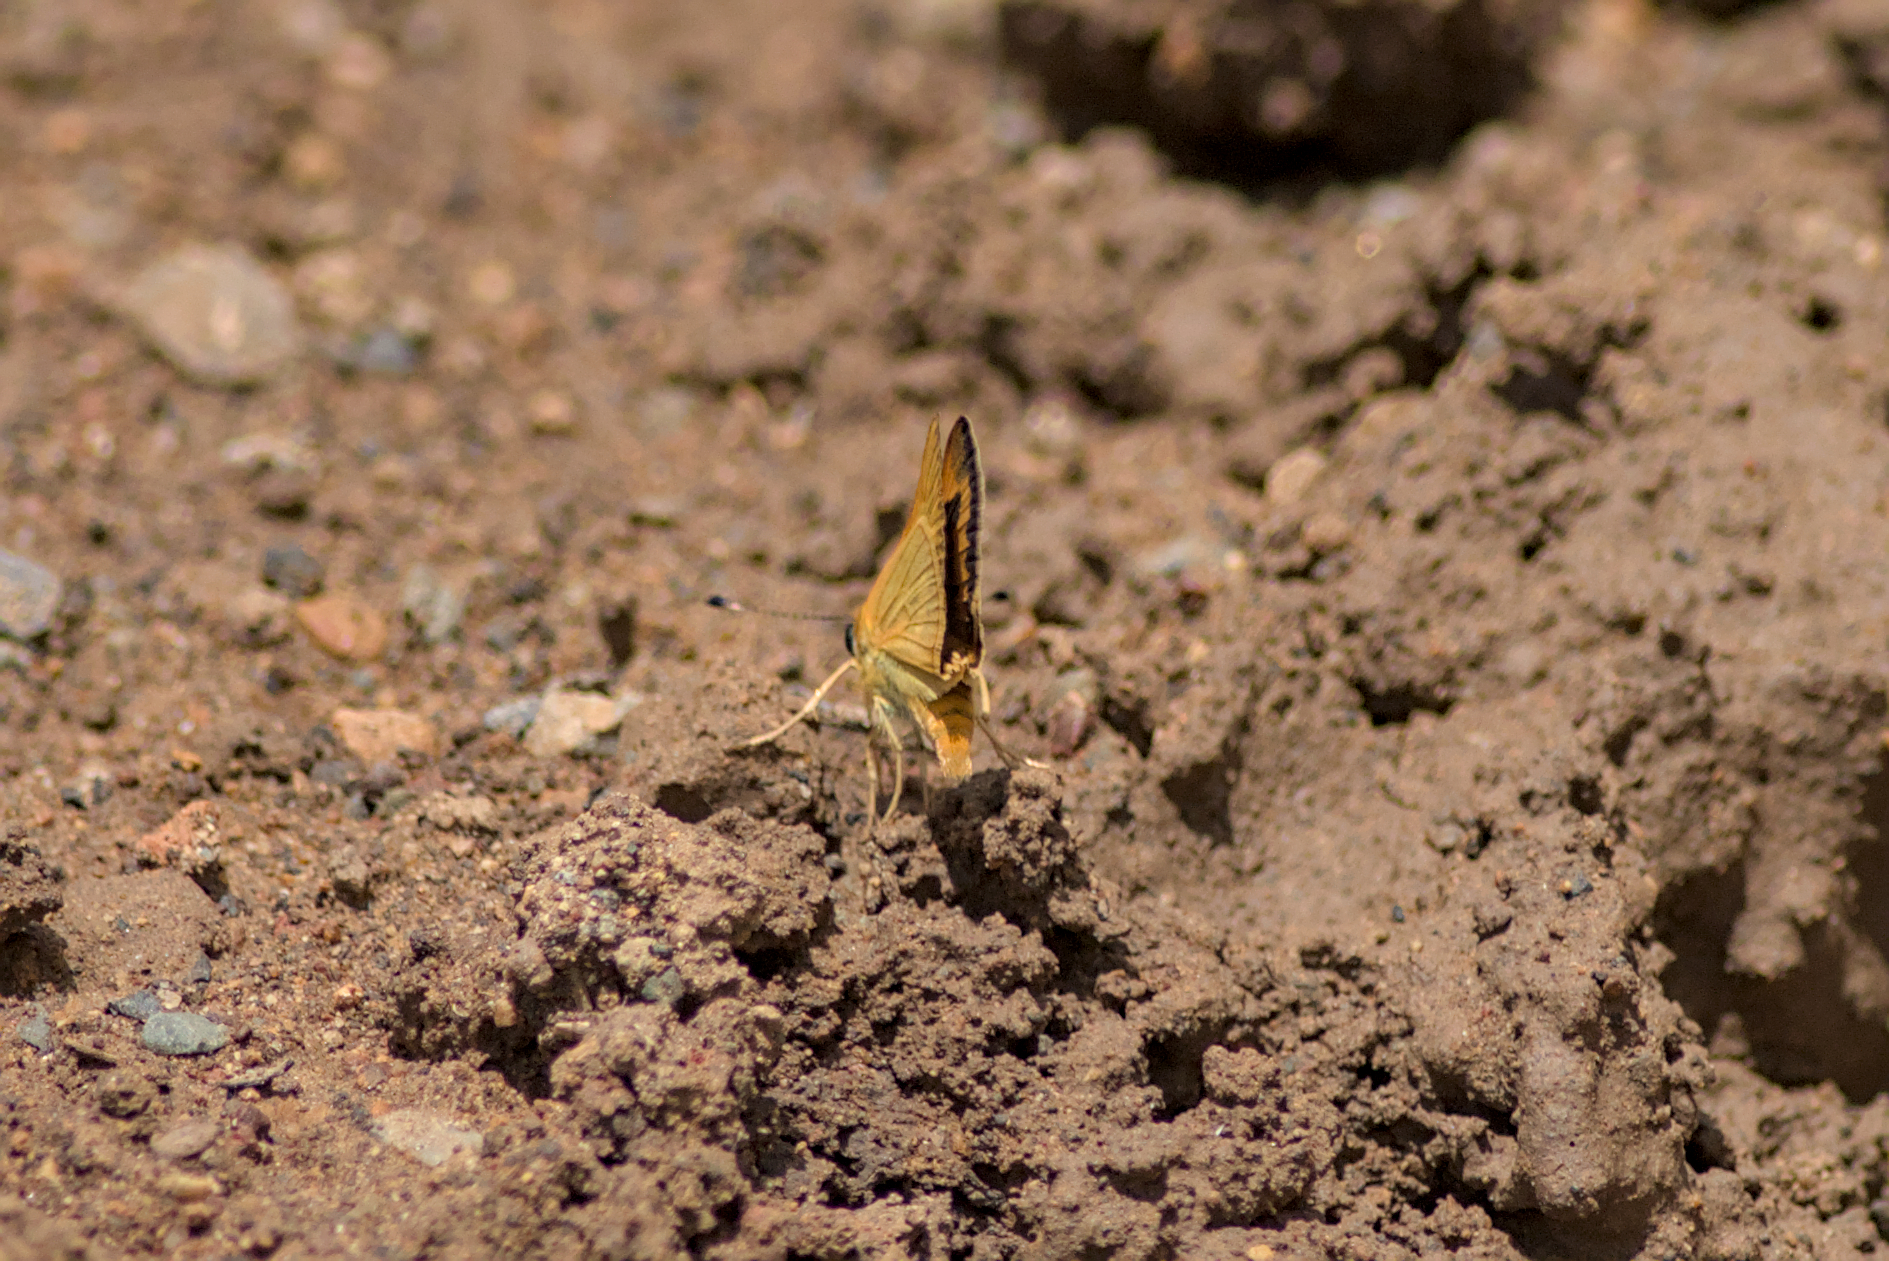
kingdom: Animalia
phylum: Arthropoda
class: Insecta
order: Lepidoptera
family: Hesperiidae
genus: Taractrocera
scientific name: Taractrocera anisomorpha
